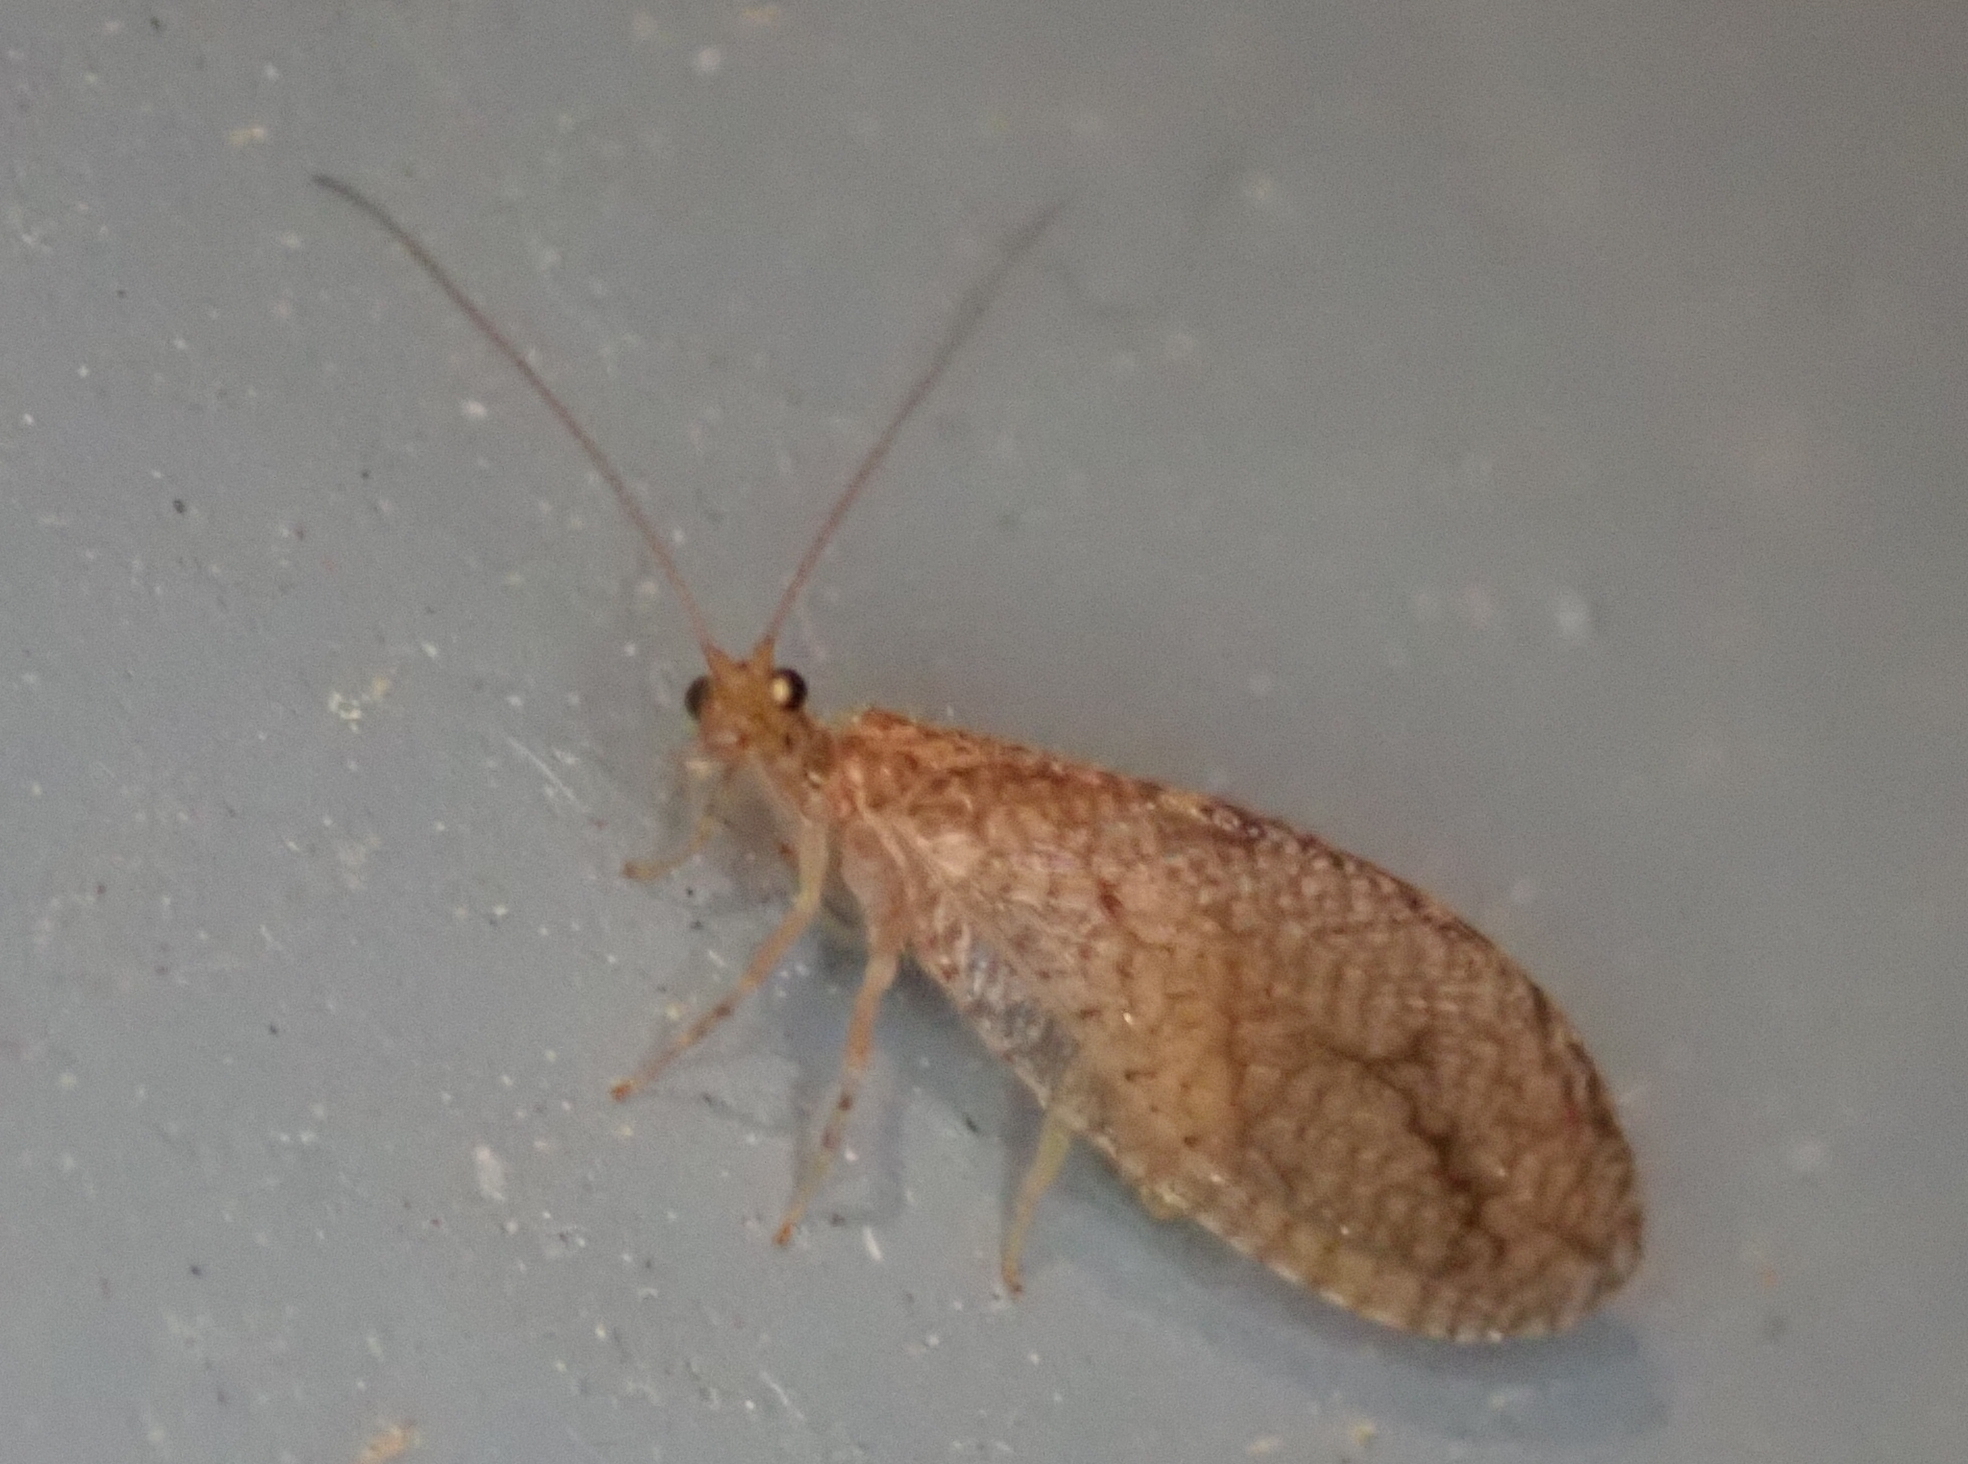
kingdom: Animalia
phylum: Arthropoda
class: Insecta
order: Neuroptera
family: Hemerobiidae
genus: Micromus
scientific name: Micromus posticus
